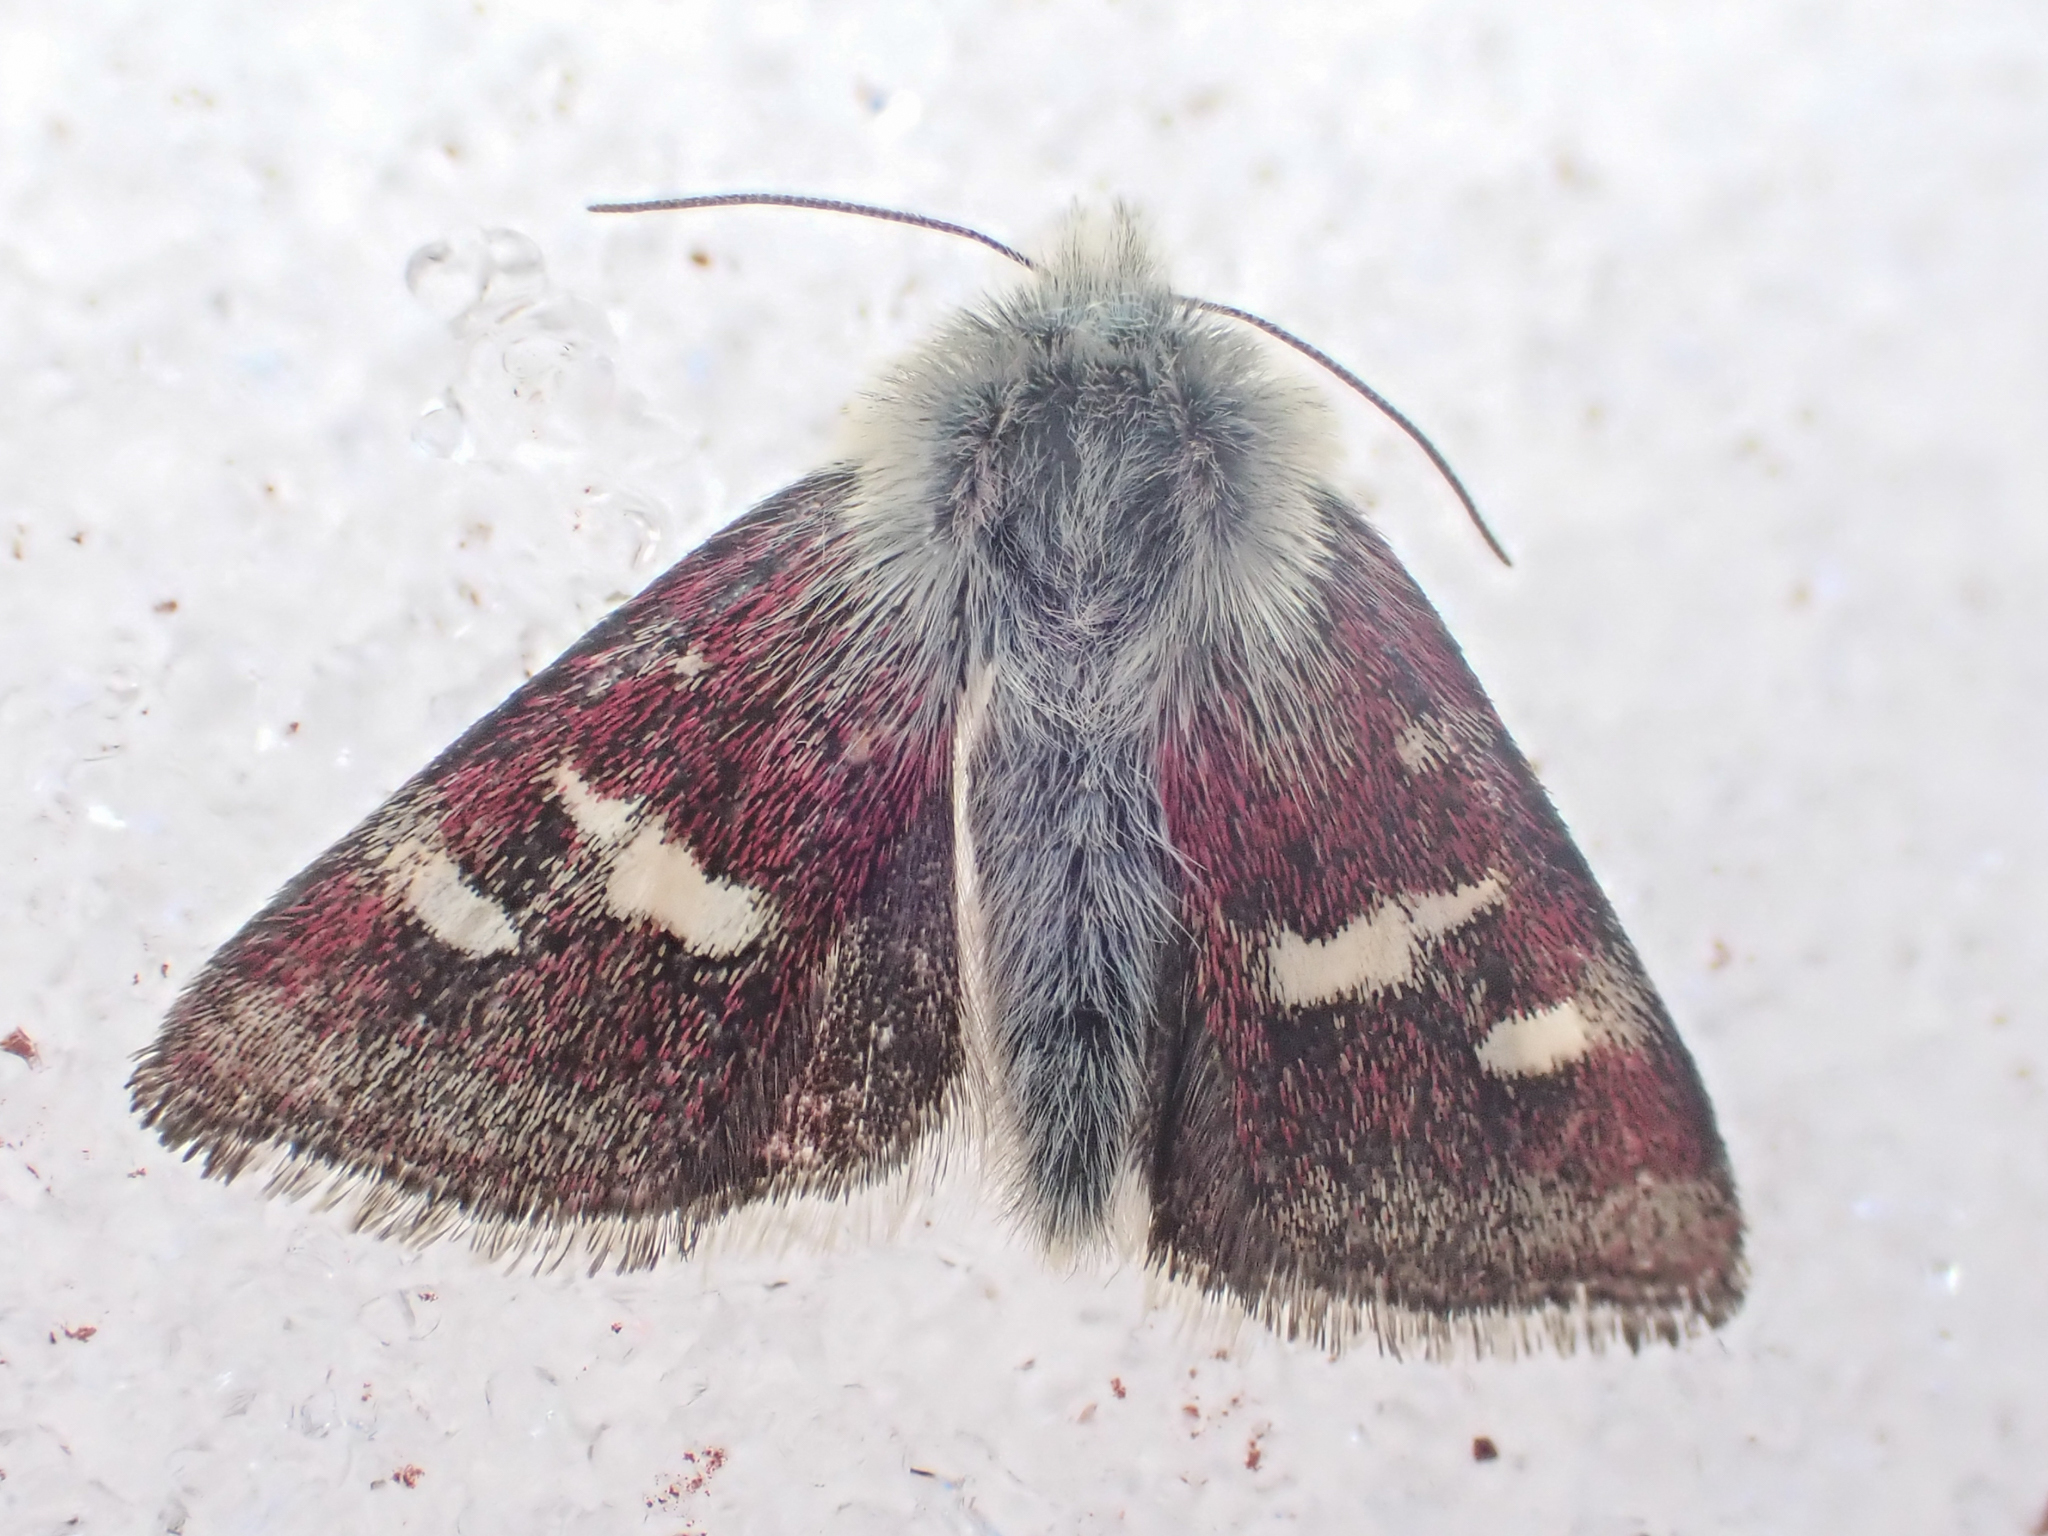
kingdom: Animalia
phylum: Arthropoda
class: Insecta
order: Lepidoptera
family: Noctuidae
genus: Eutricopis
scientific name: Eutricopis nexilis
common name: White-spotted midget moth
